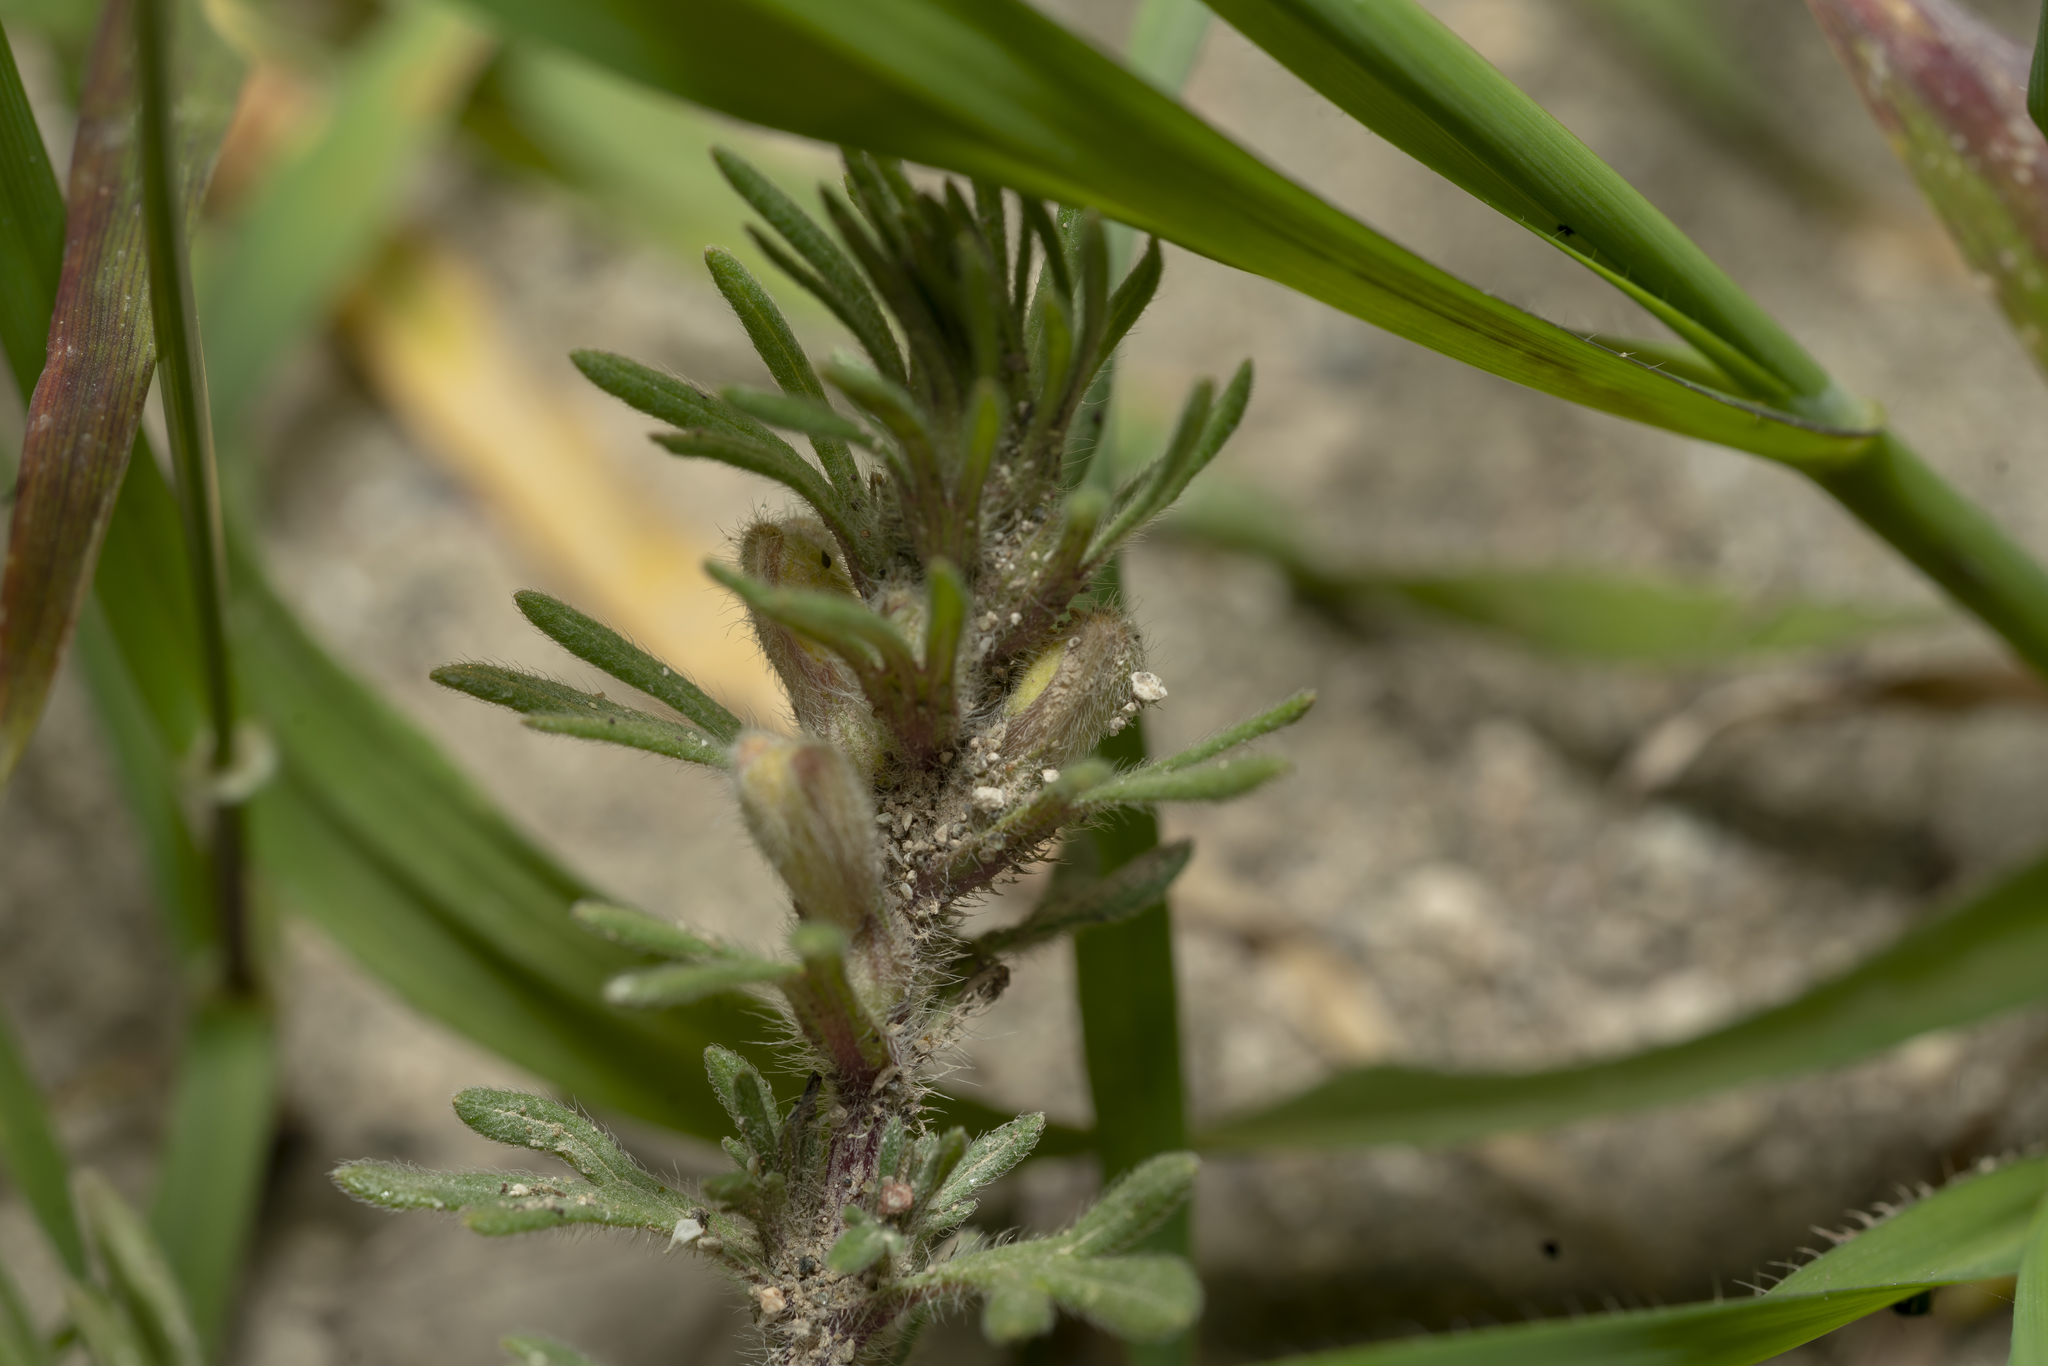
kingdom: Plantae
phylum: Tracheophyta
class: Magnoliopsida
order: Lamiales
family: Lamiaceae
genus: Ajuga
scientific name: Ajuga chamaepitys
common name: Ground-pine
